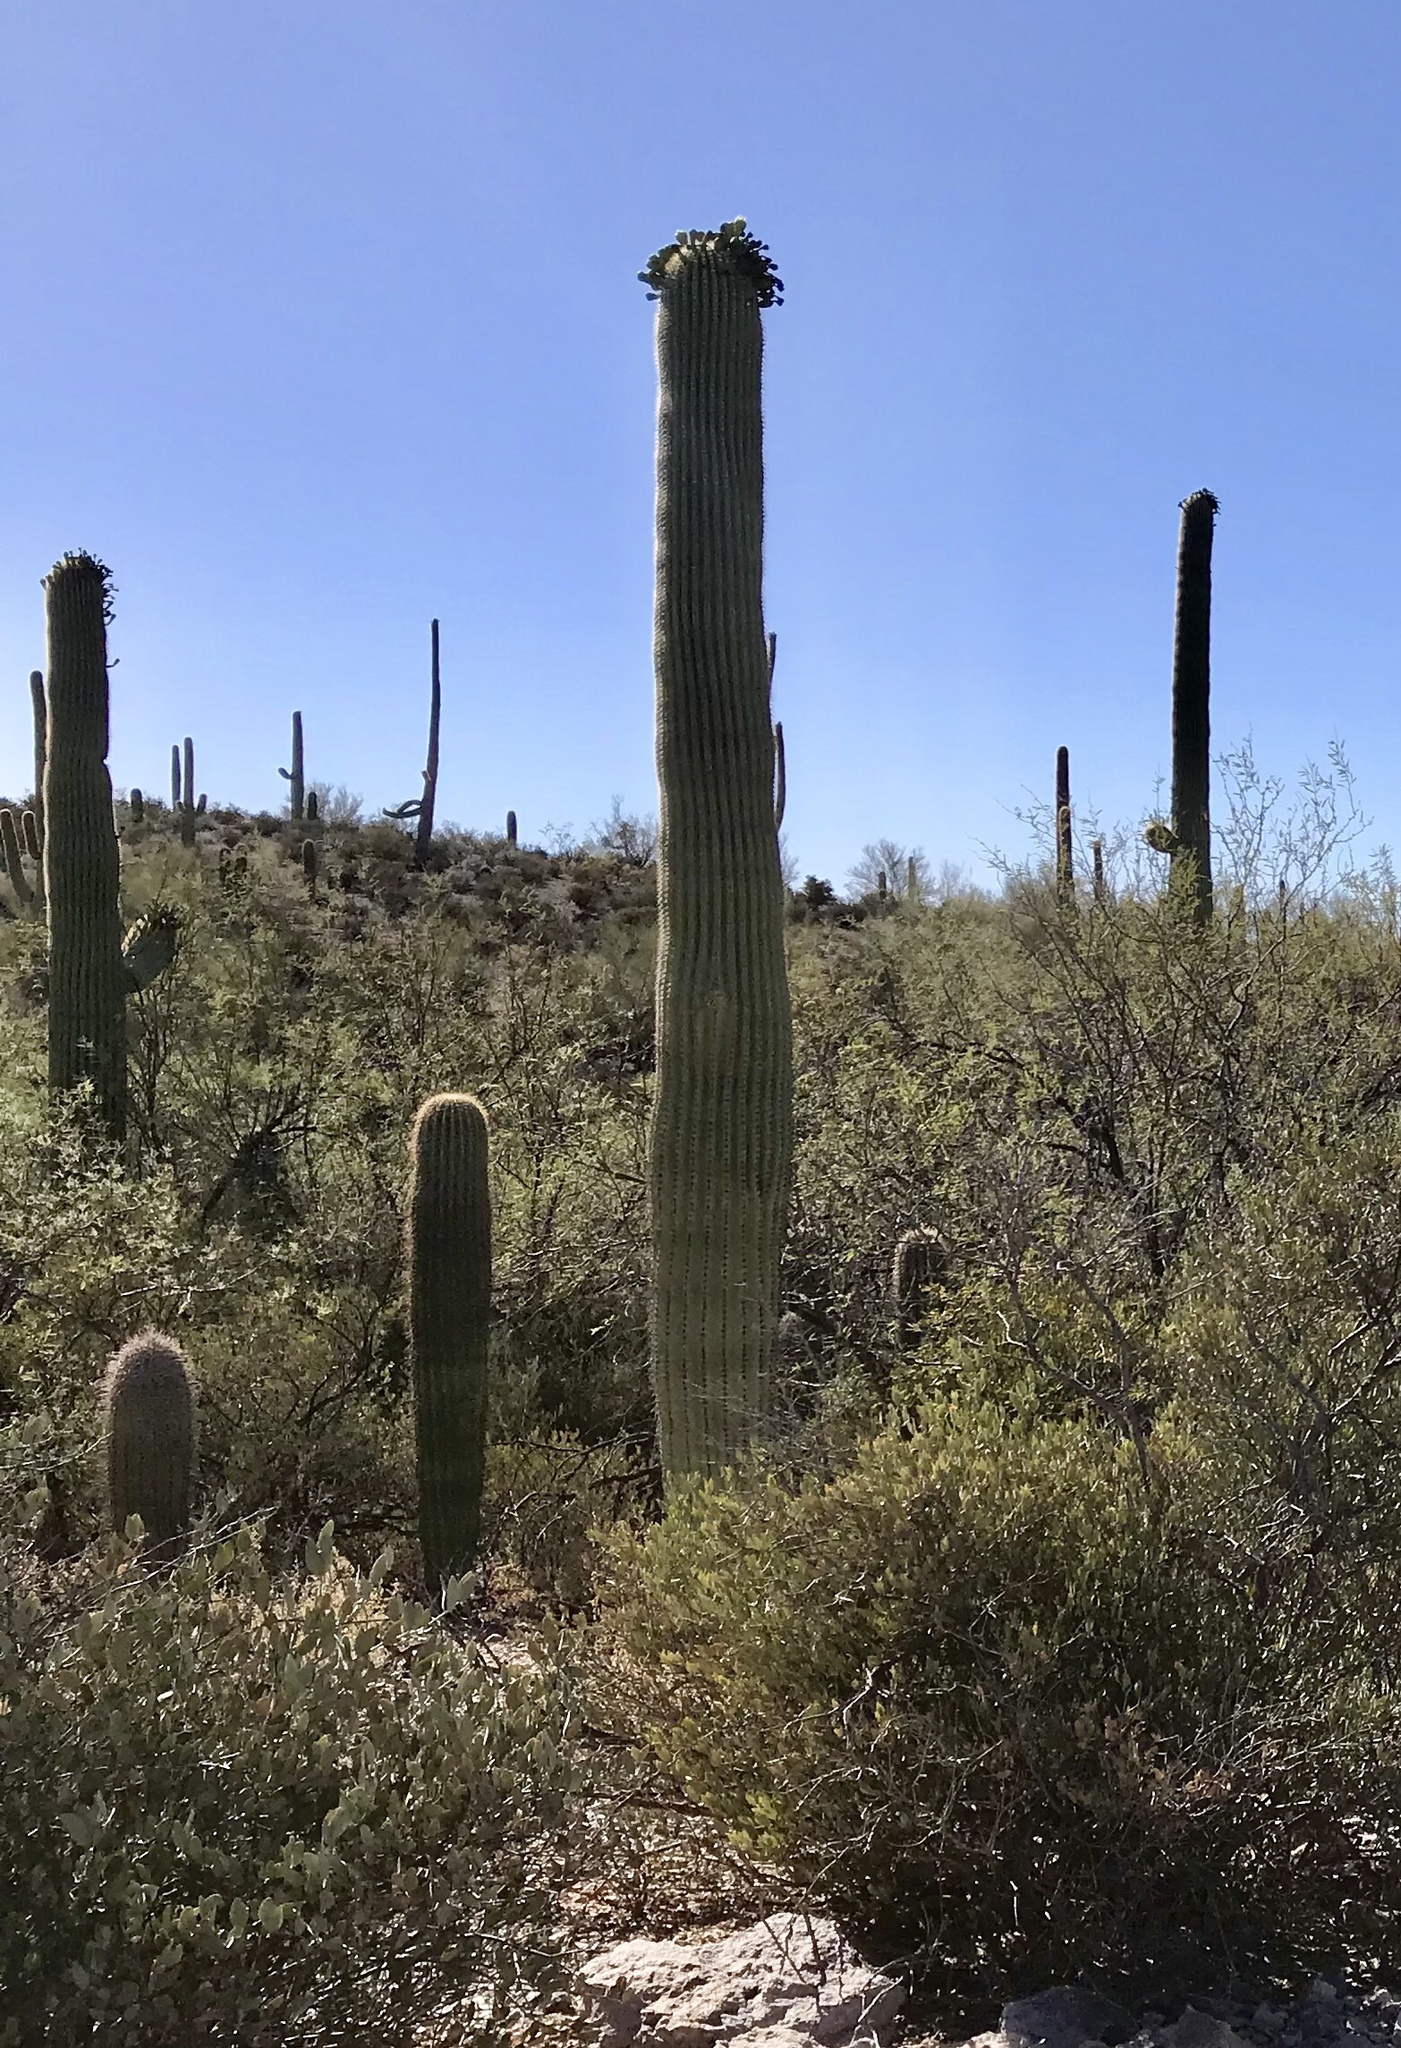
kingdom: Plantae
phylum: Tracheophyta
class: Magnoliopsida
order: Caryophyllales
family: Cactaceae
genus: Carnegiea
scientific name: Carnegiea gigantea
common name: Saguaro
